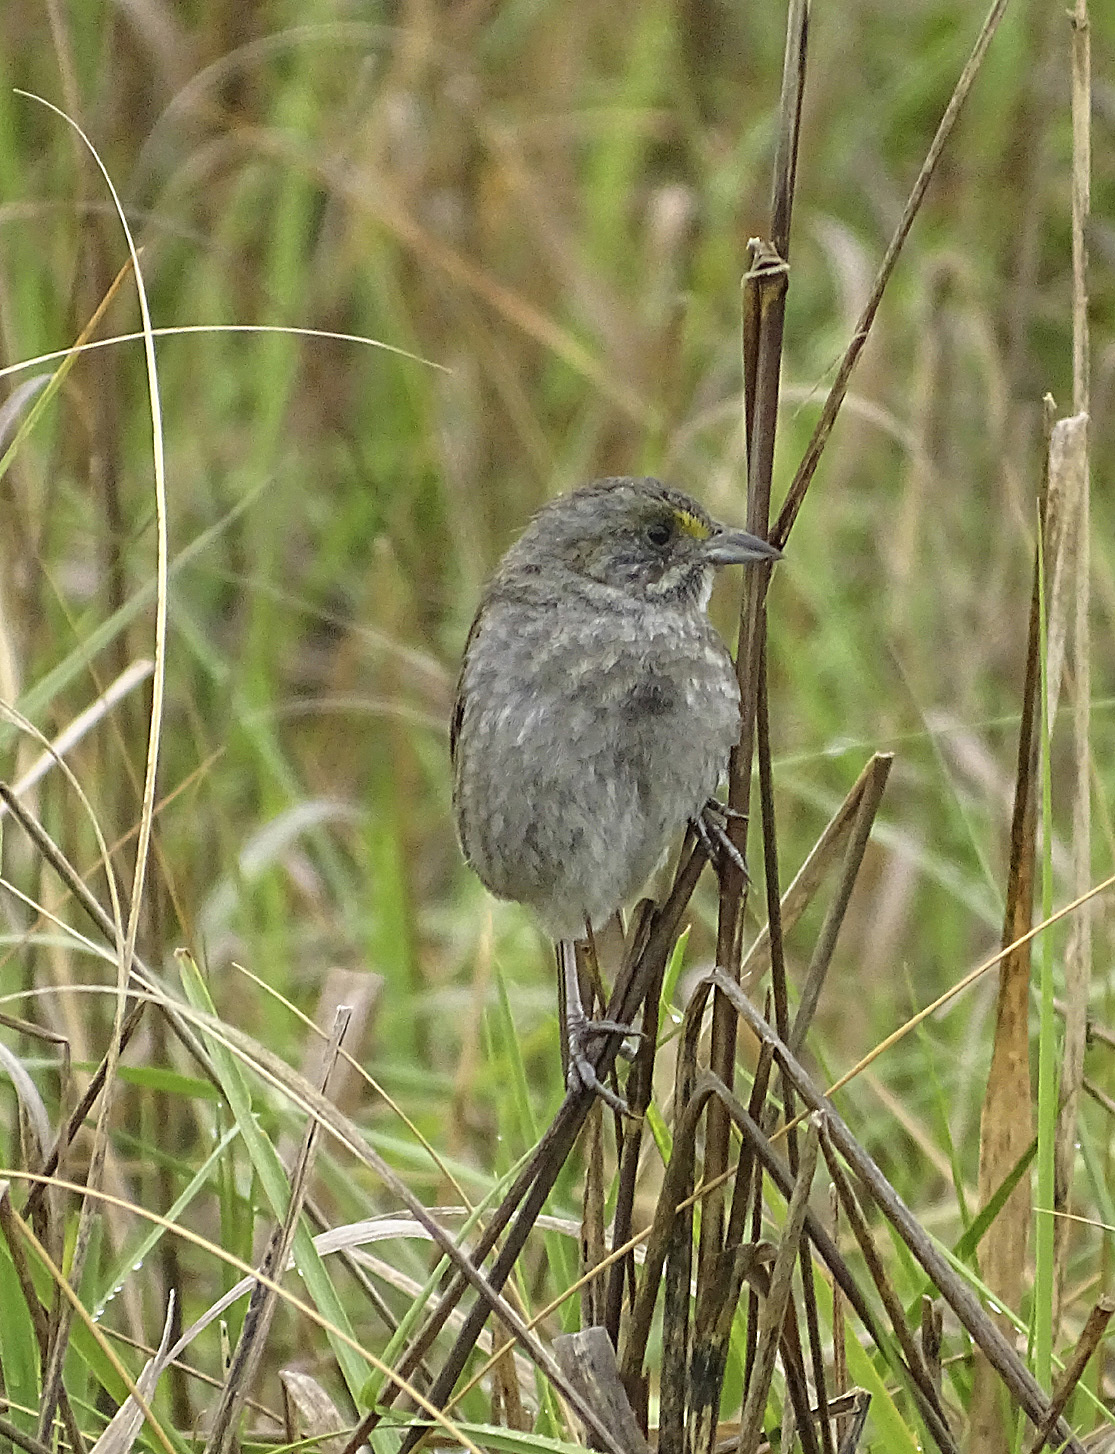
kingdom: Animalia
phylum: Chordata
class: Aves
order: Passeriformes
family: Passerellidae
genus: Ammospiza
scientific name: Ammospiza maritima
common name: Seaside sparrow
